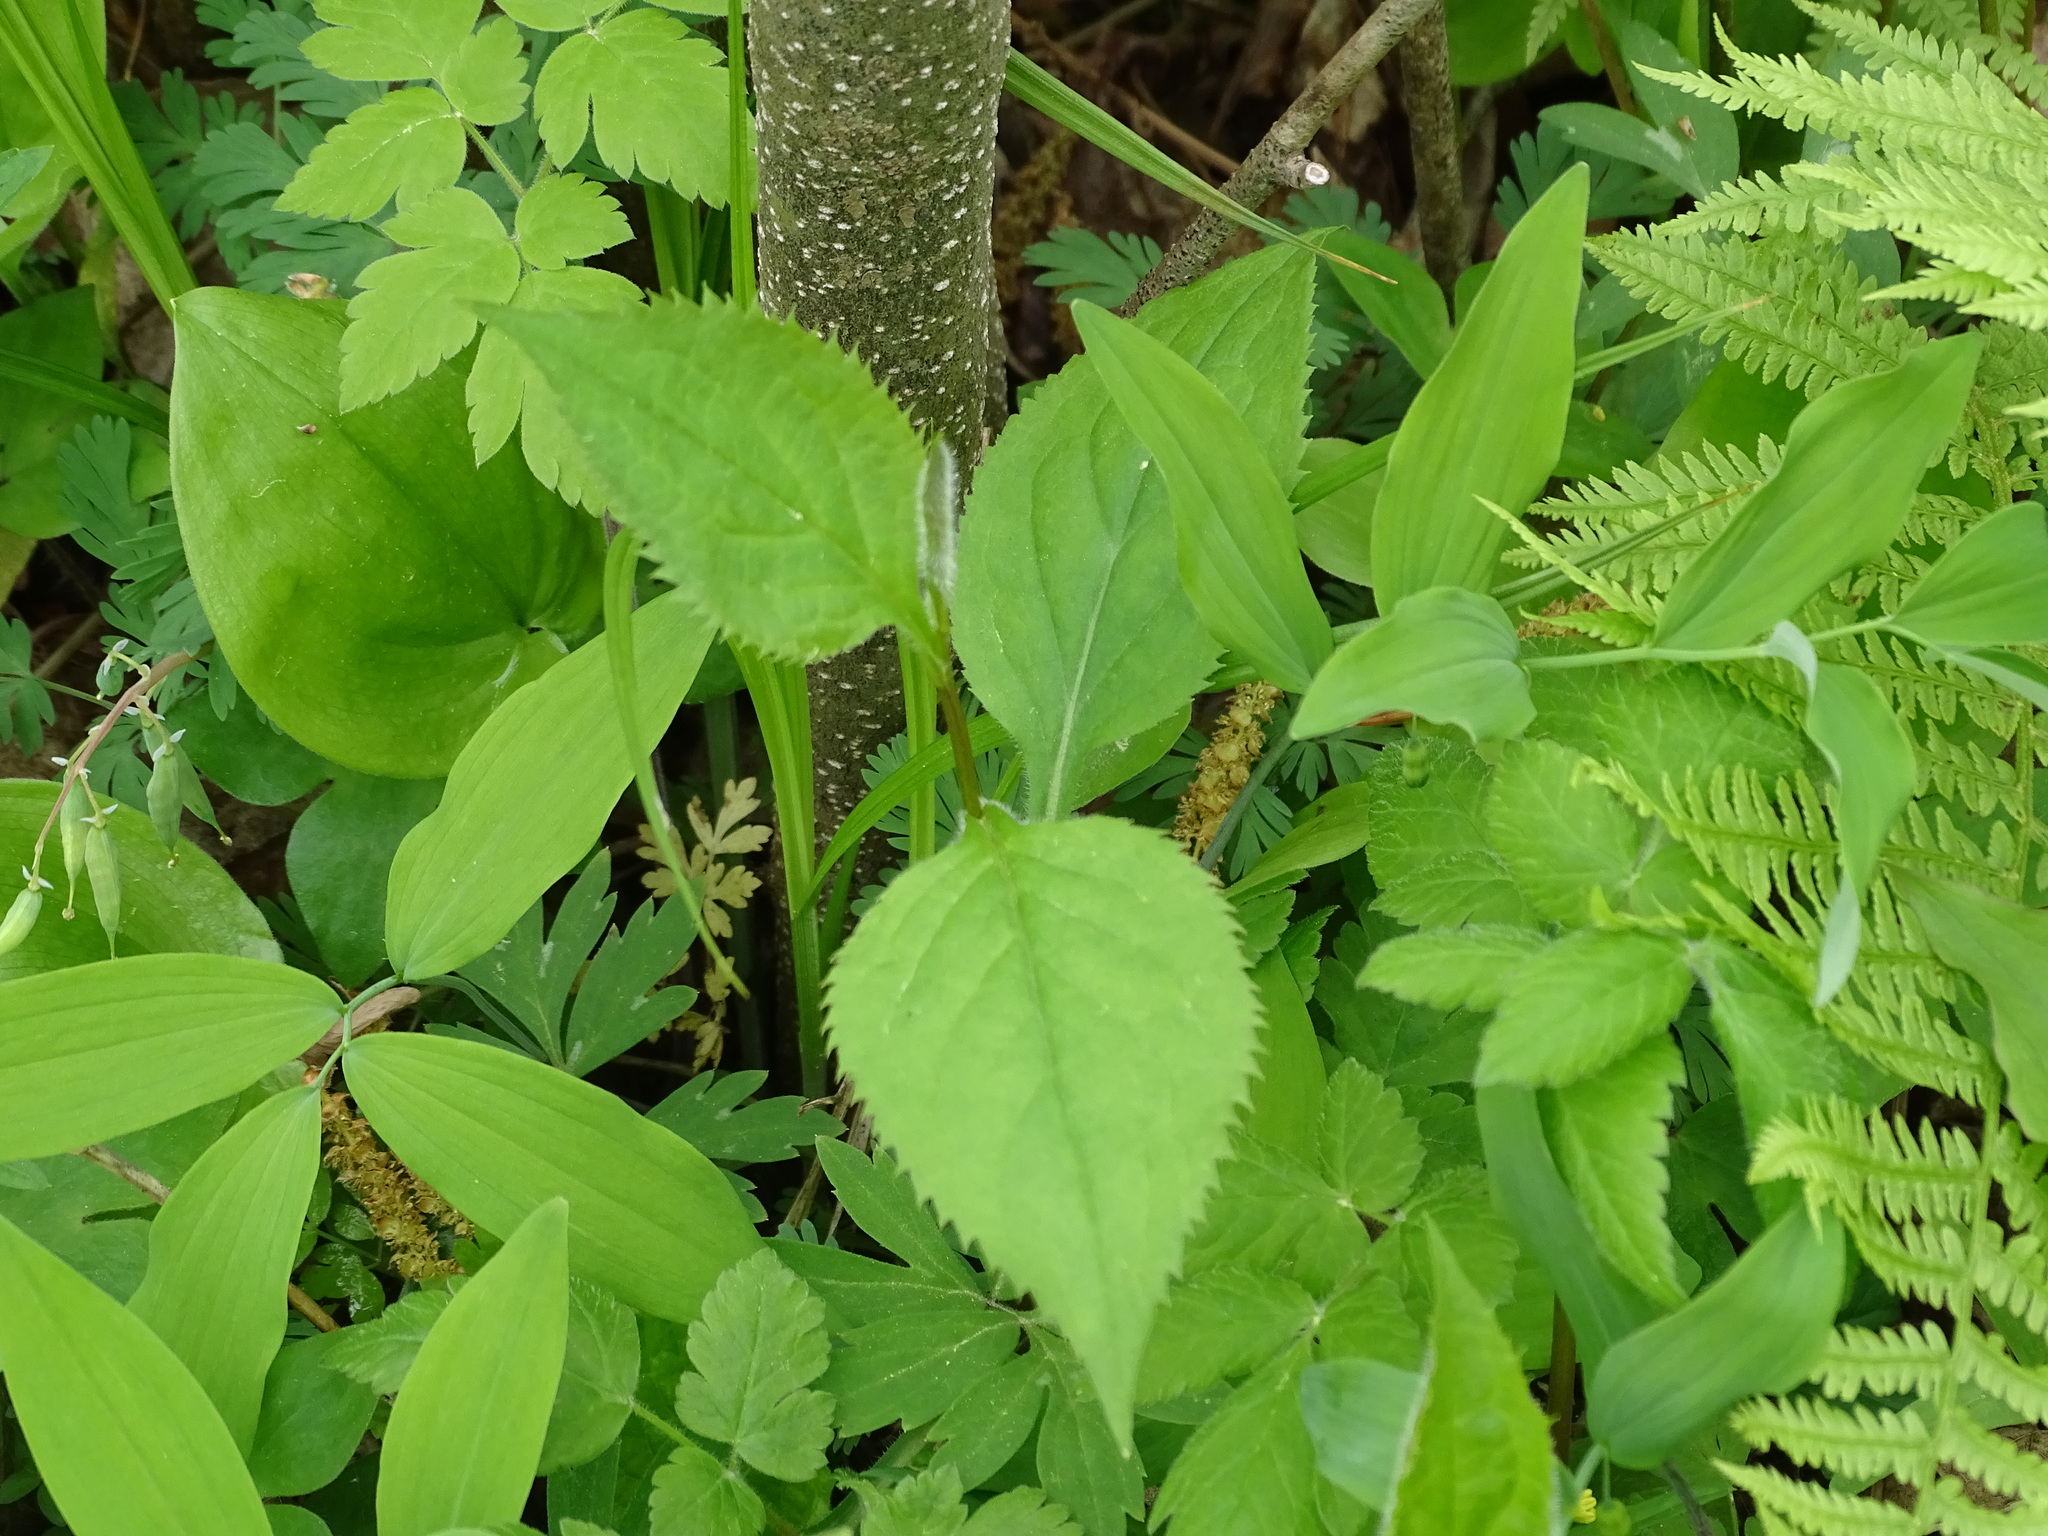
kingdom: Plantae
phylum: Tracheophyta
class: Magnoliopsida
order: Asterales
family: Asteraceae
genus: Solidago
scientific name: Solidago flexicaulis
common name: Zig-zag goldenrod
